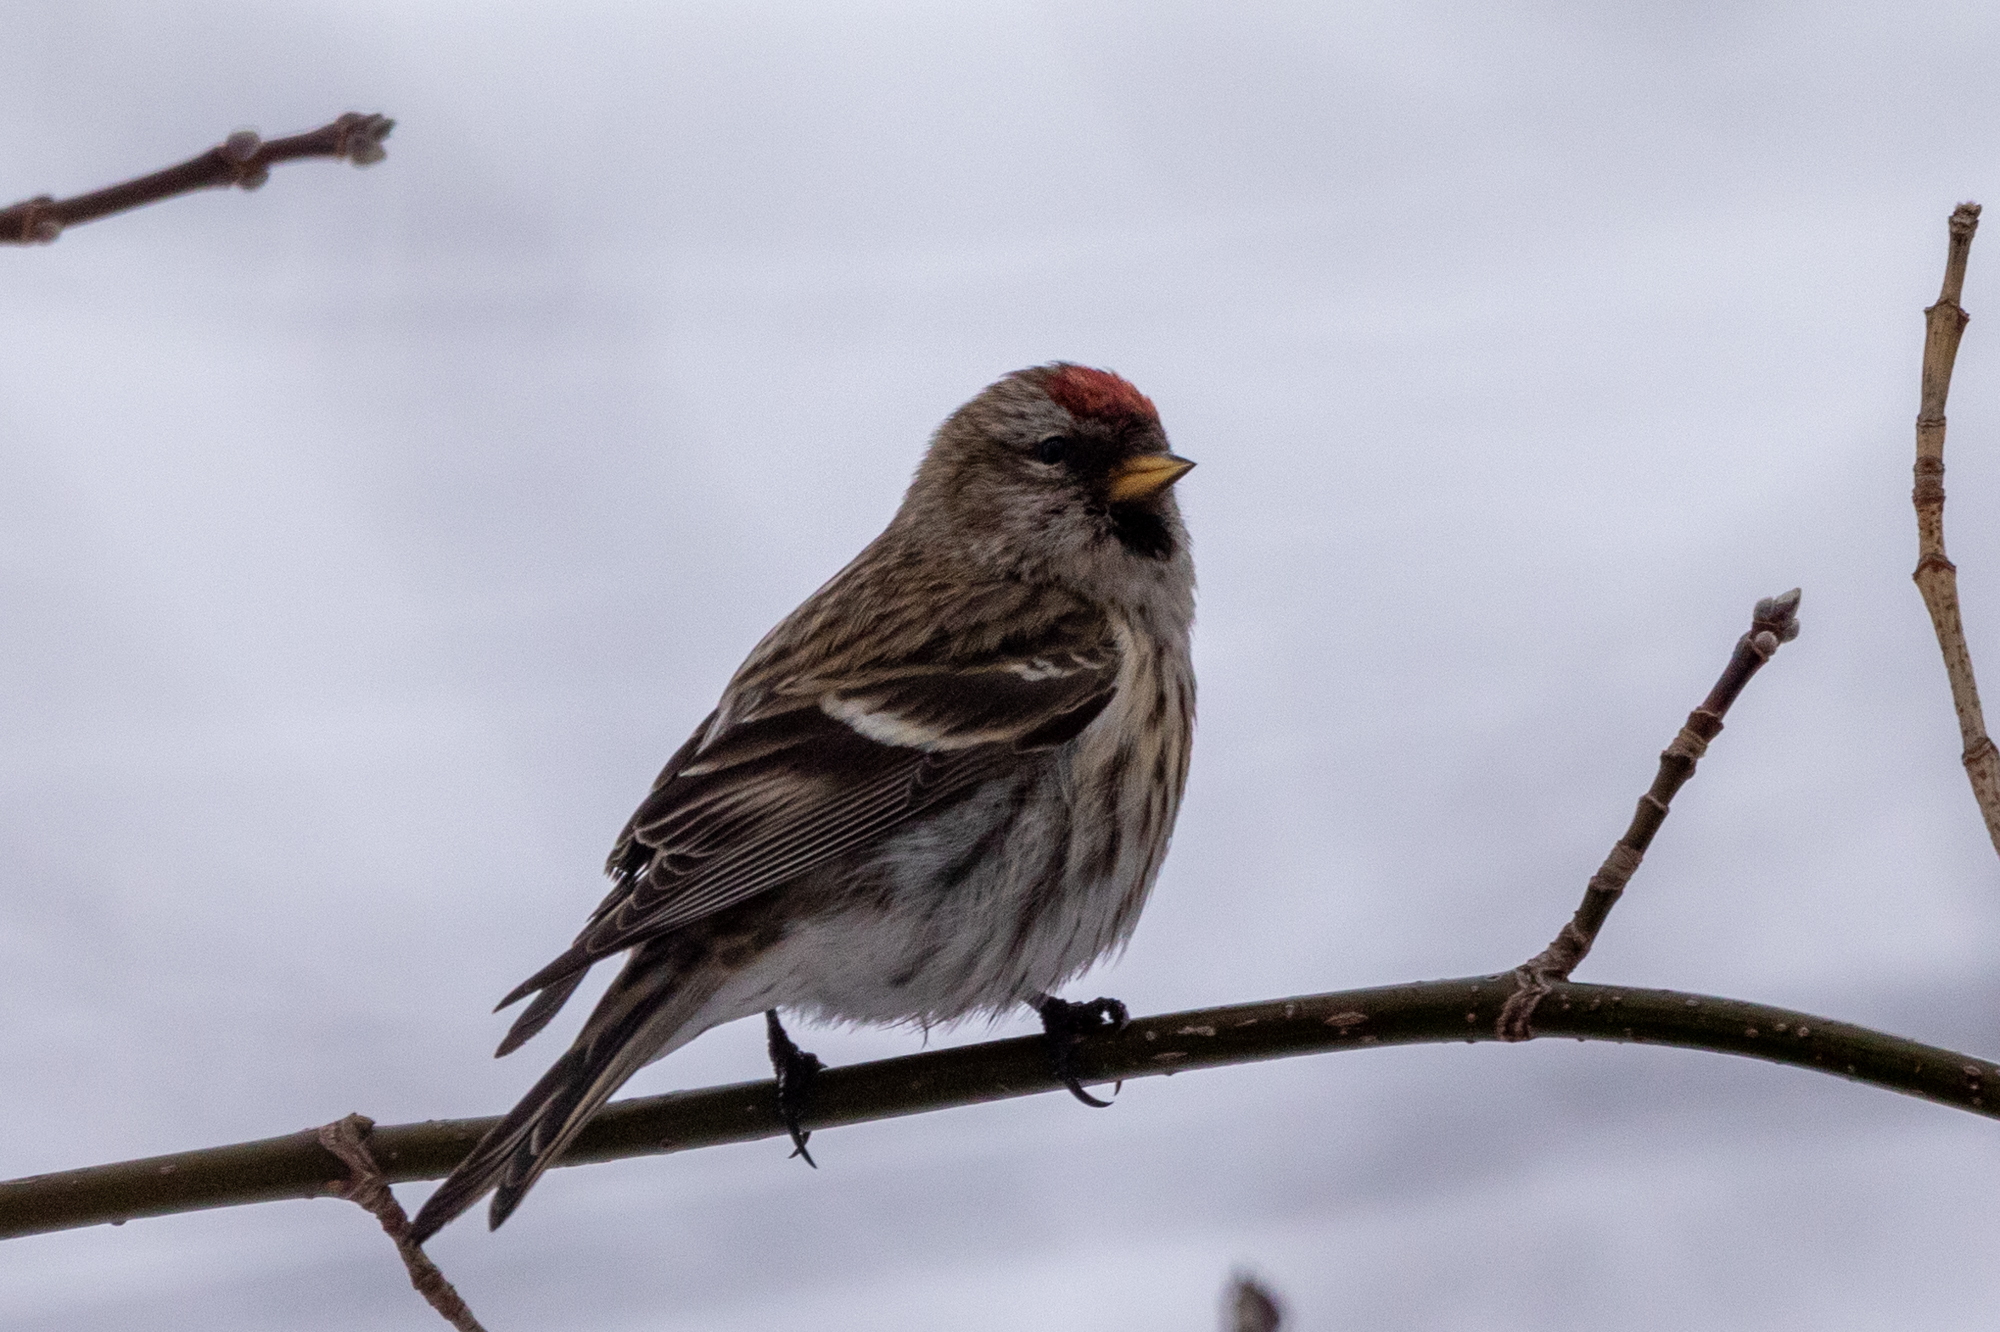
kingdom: Animalia
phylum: Chordata
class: Aves
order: Passeriformes
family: Fringillidae
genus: Acanthis
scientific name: Acanthis flammea
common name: Common redpoll
